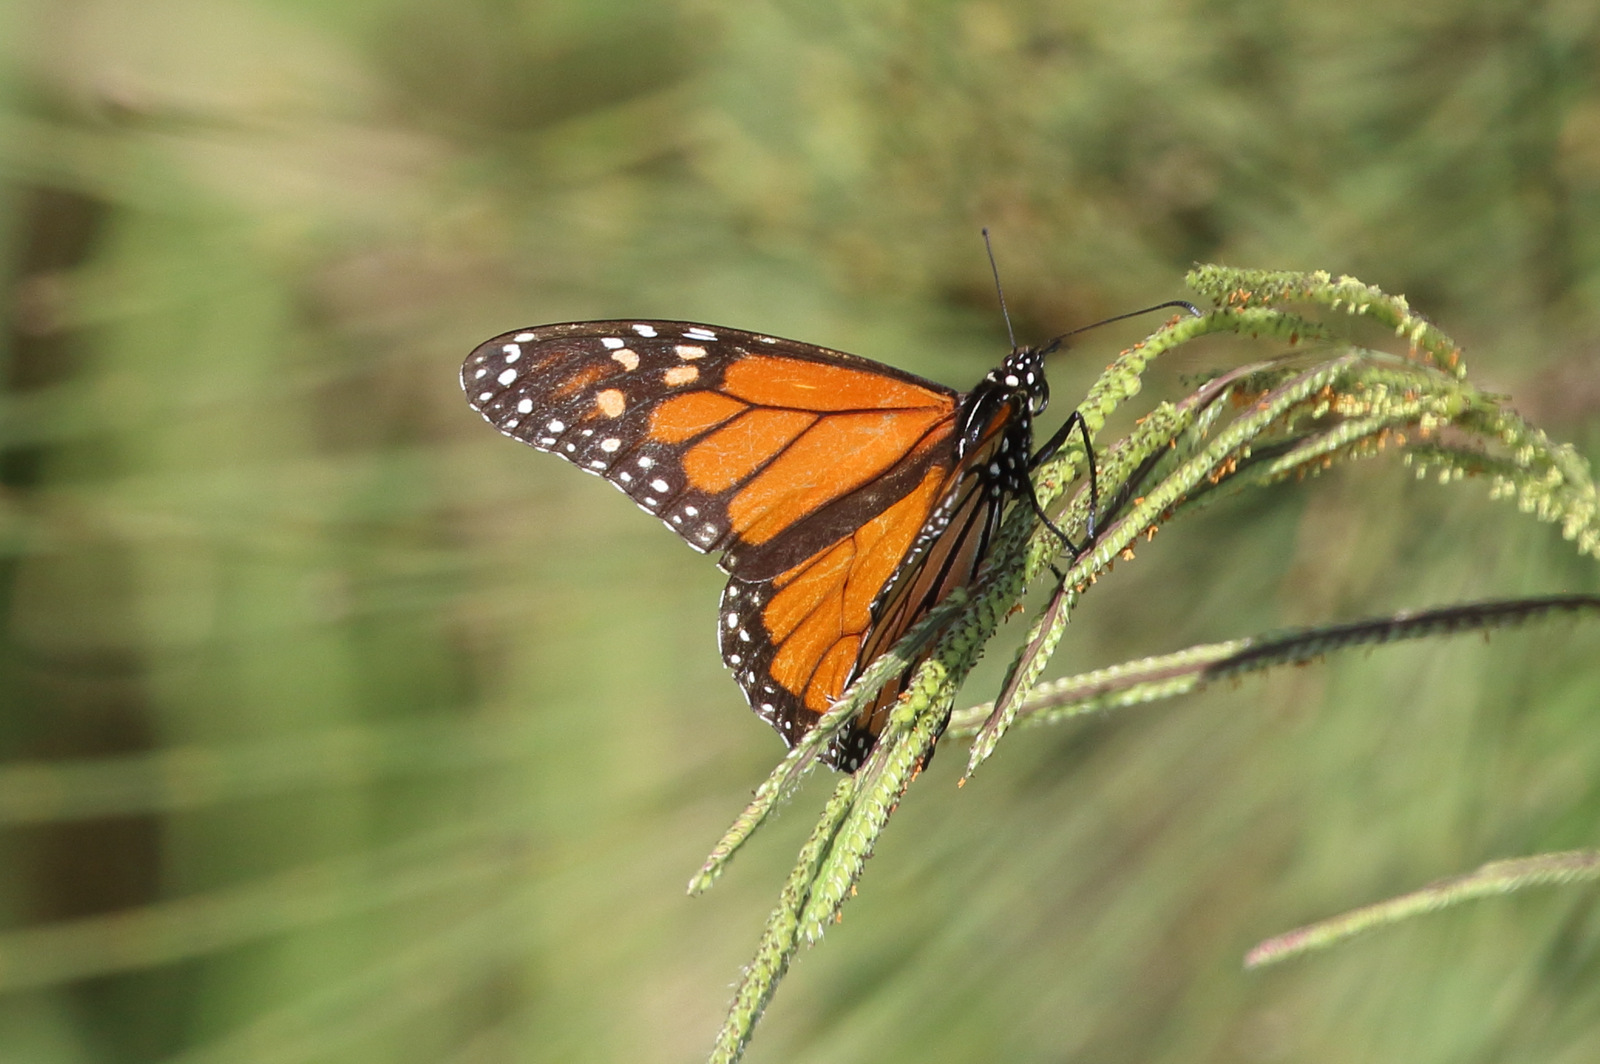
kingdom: Animalia
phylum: Arthropoda
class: Insecta
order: Lepidoptera
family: Nymphalidae
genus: Danaus
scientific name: Danaus plexippus
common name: Monarch
